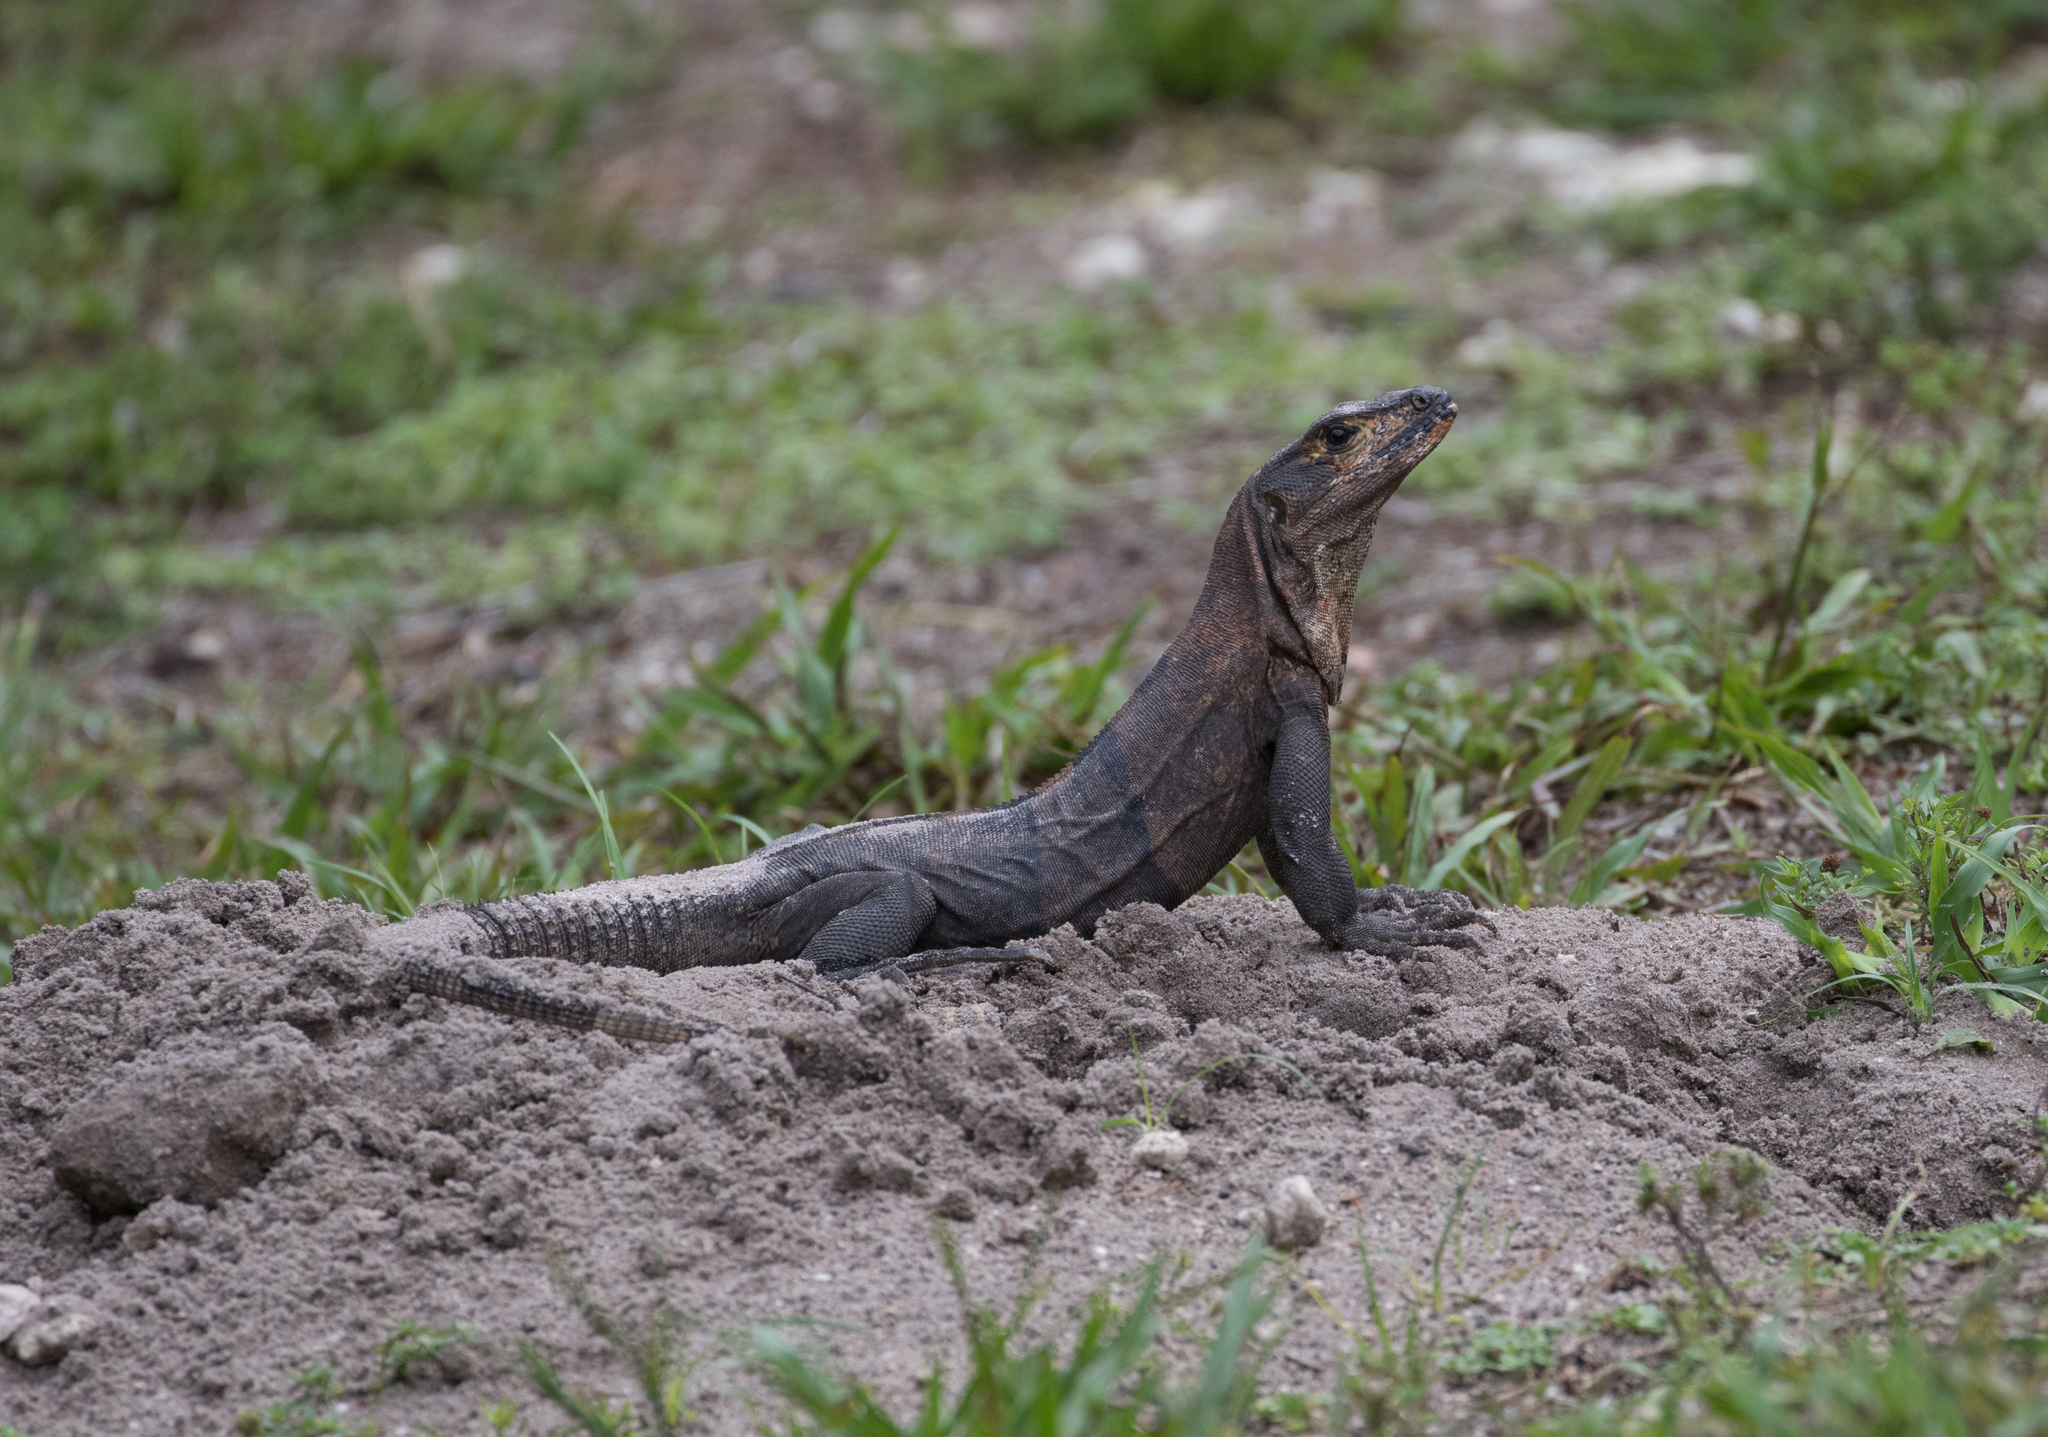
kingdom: Animalia
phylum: Chordata
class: Squamata
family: Iguanidae
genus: Ctenosaura
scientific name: Ctenosaura similis
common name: Black spiny-tailed iguana
